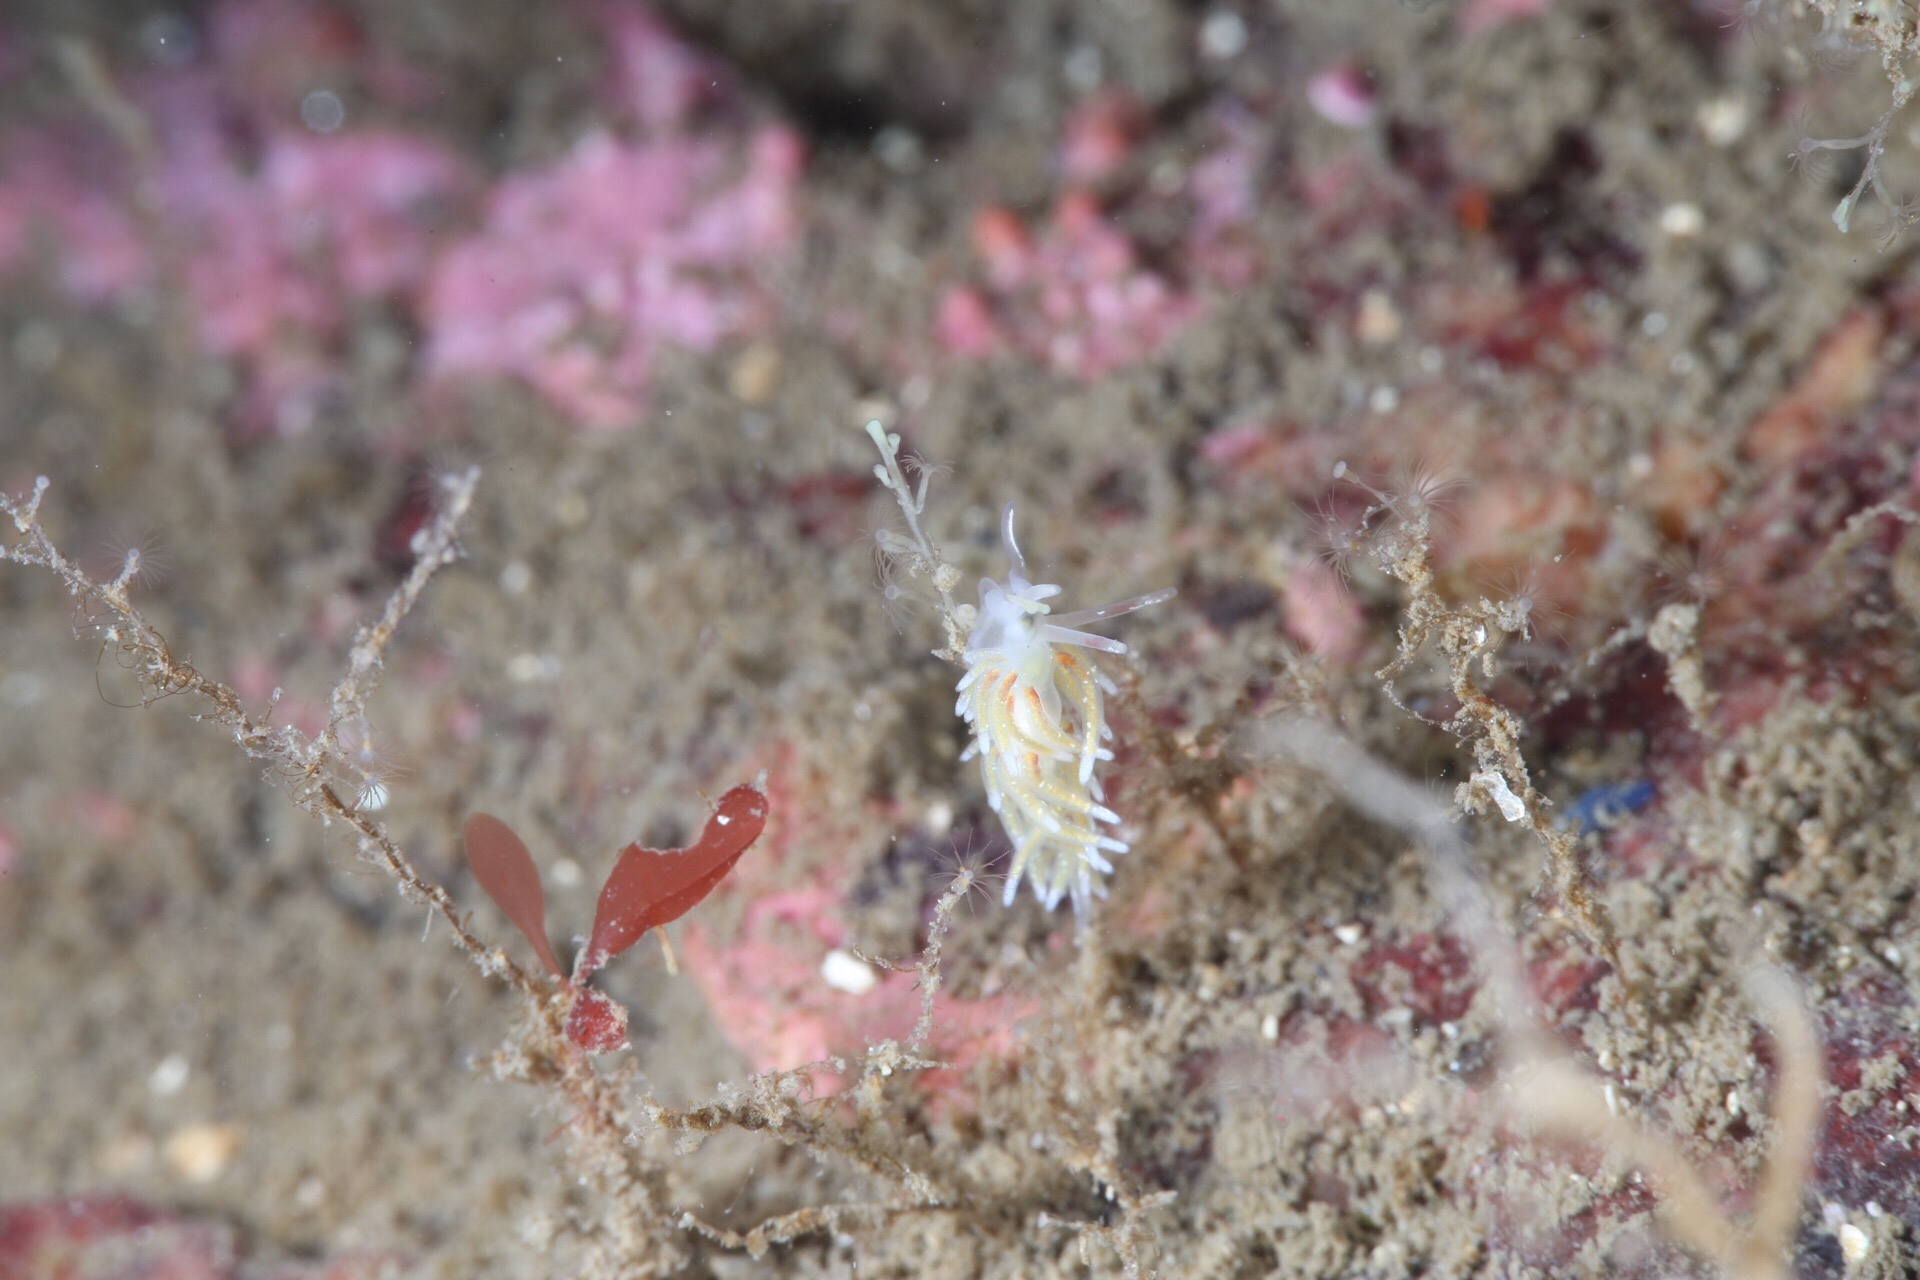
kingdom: Animalia
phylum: Mollusca
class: Gastropoda
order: Nudibranchia
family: Trinchesiidae
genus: Rubramoena
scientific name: Rubramoena rubescens
